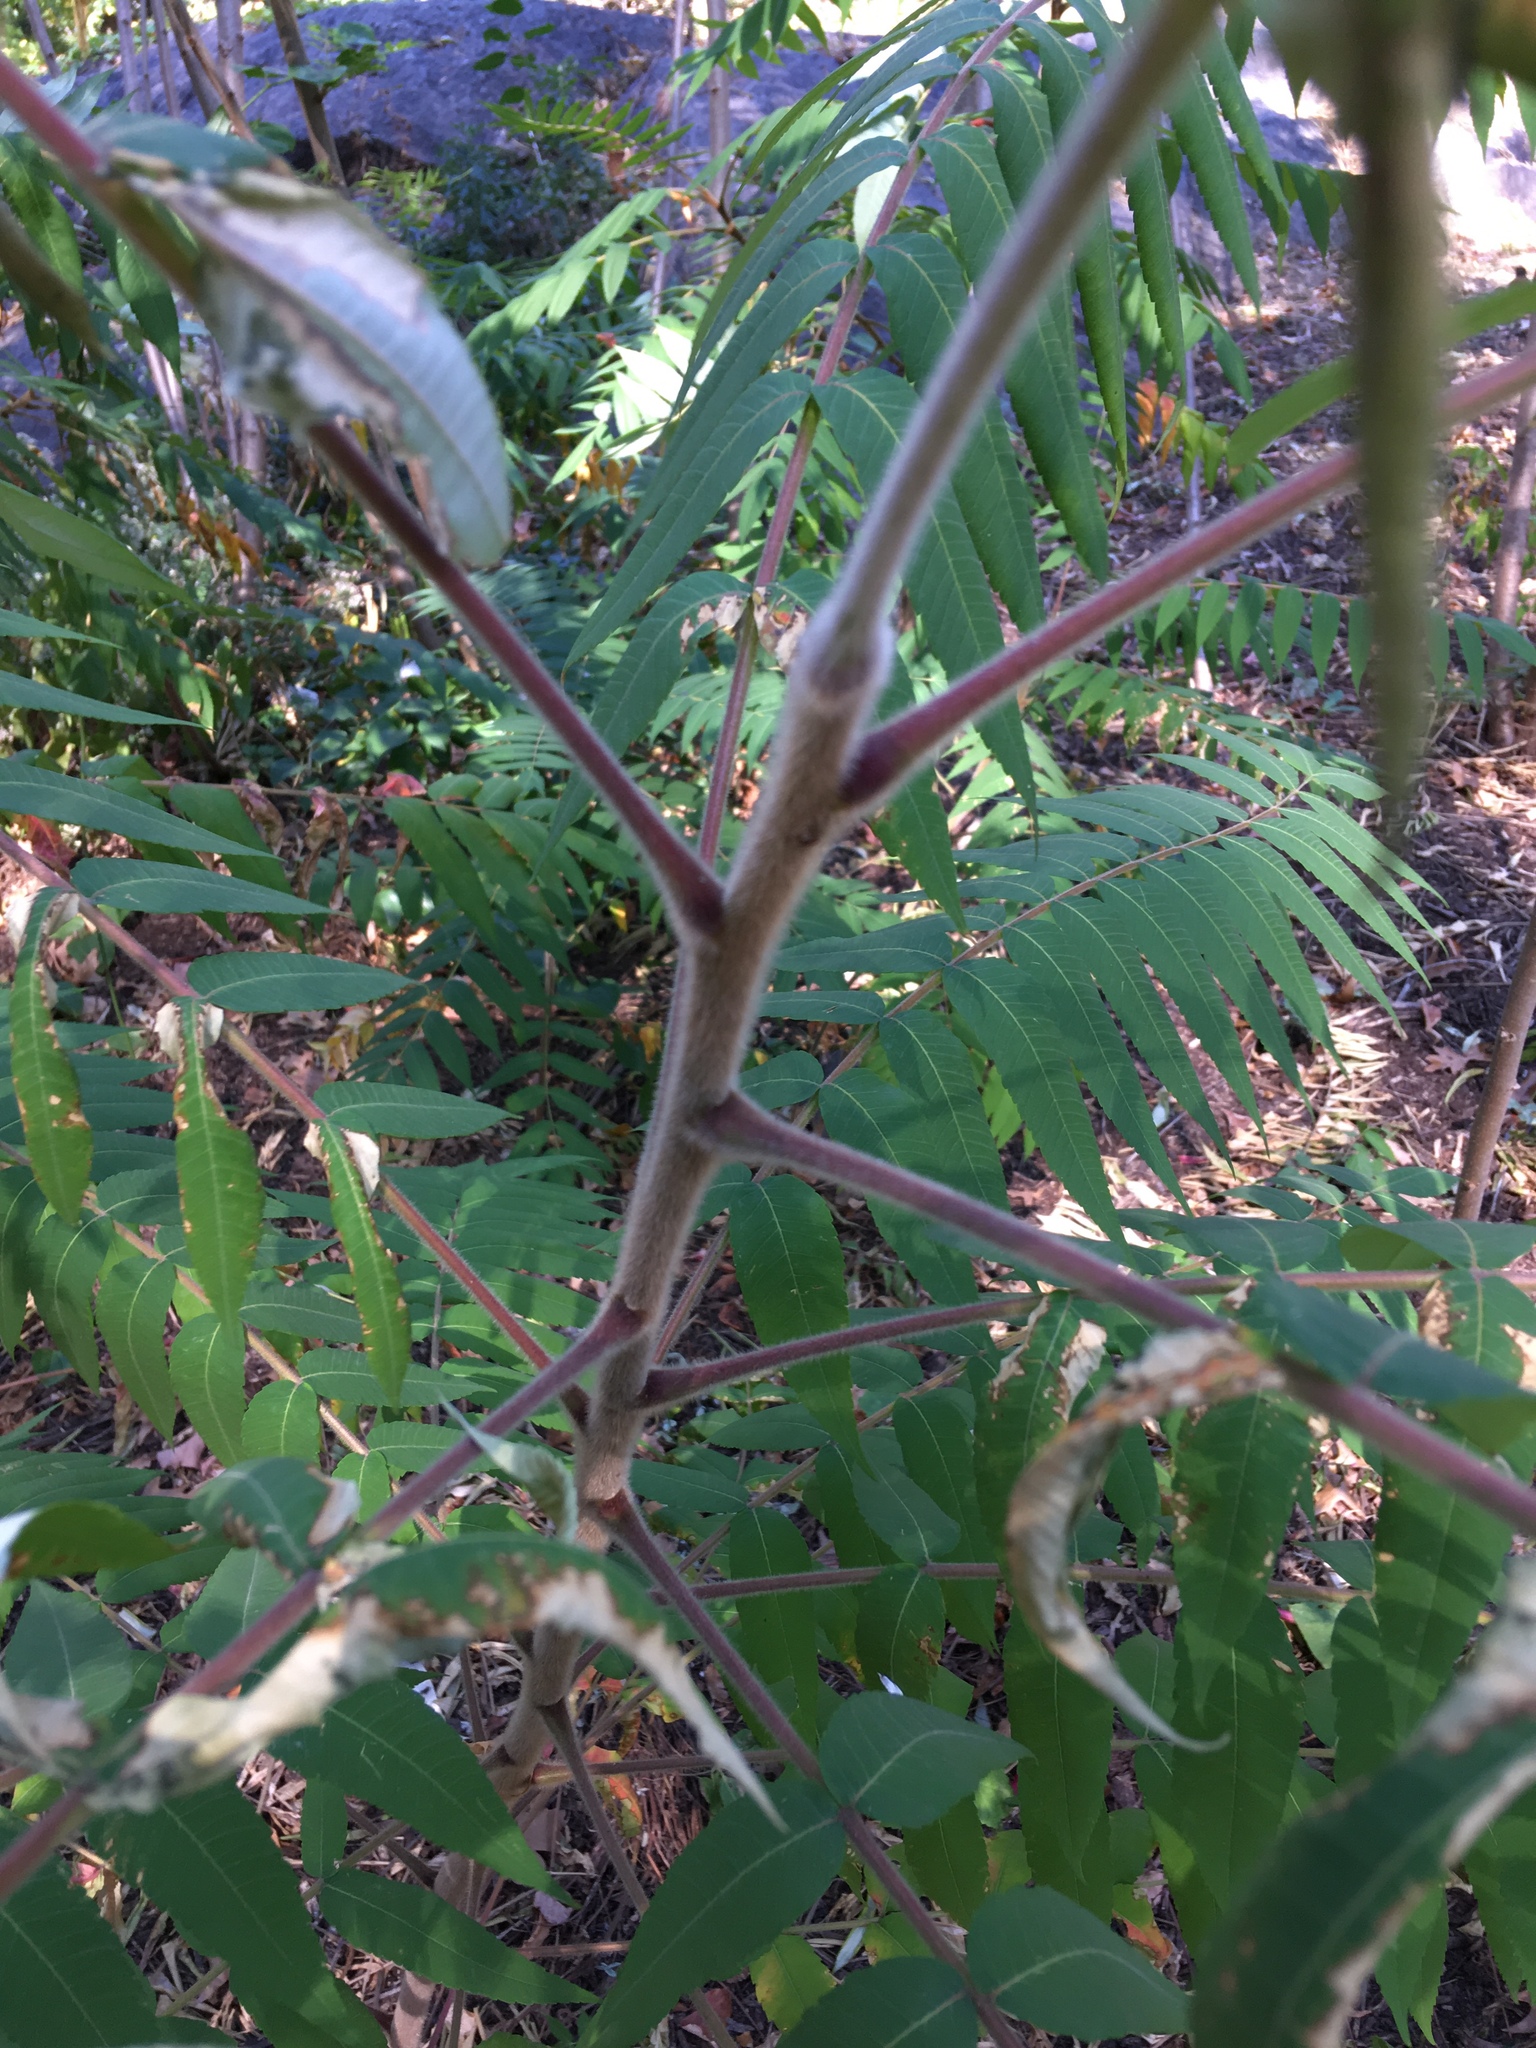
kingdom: Plantae
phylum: Tracheophyta
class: Magnoliopsida
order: Sapindales
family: Anacardiaceae
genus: Rhus
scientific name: Rhus typhina
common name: Staghorn sumac
